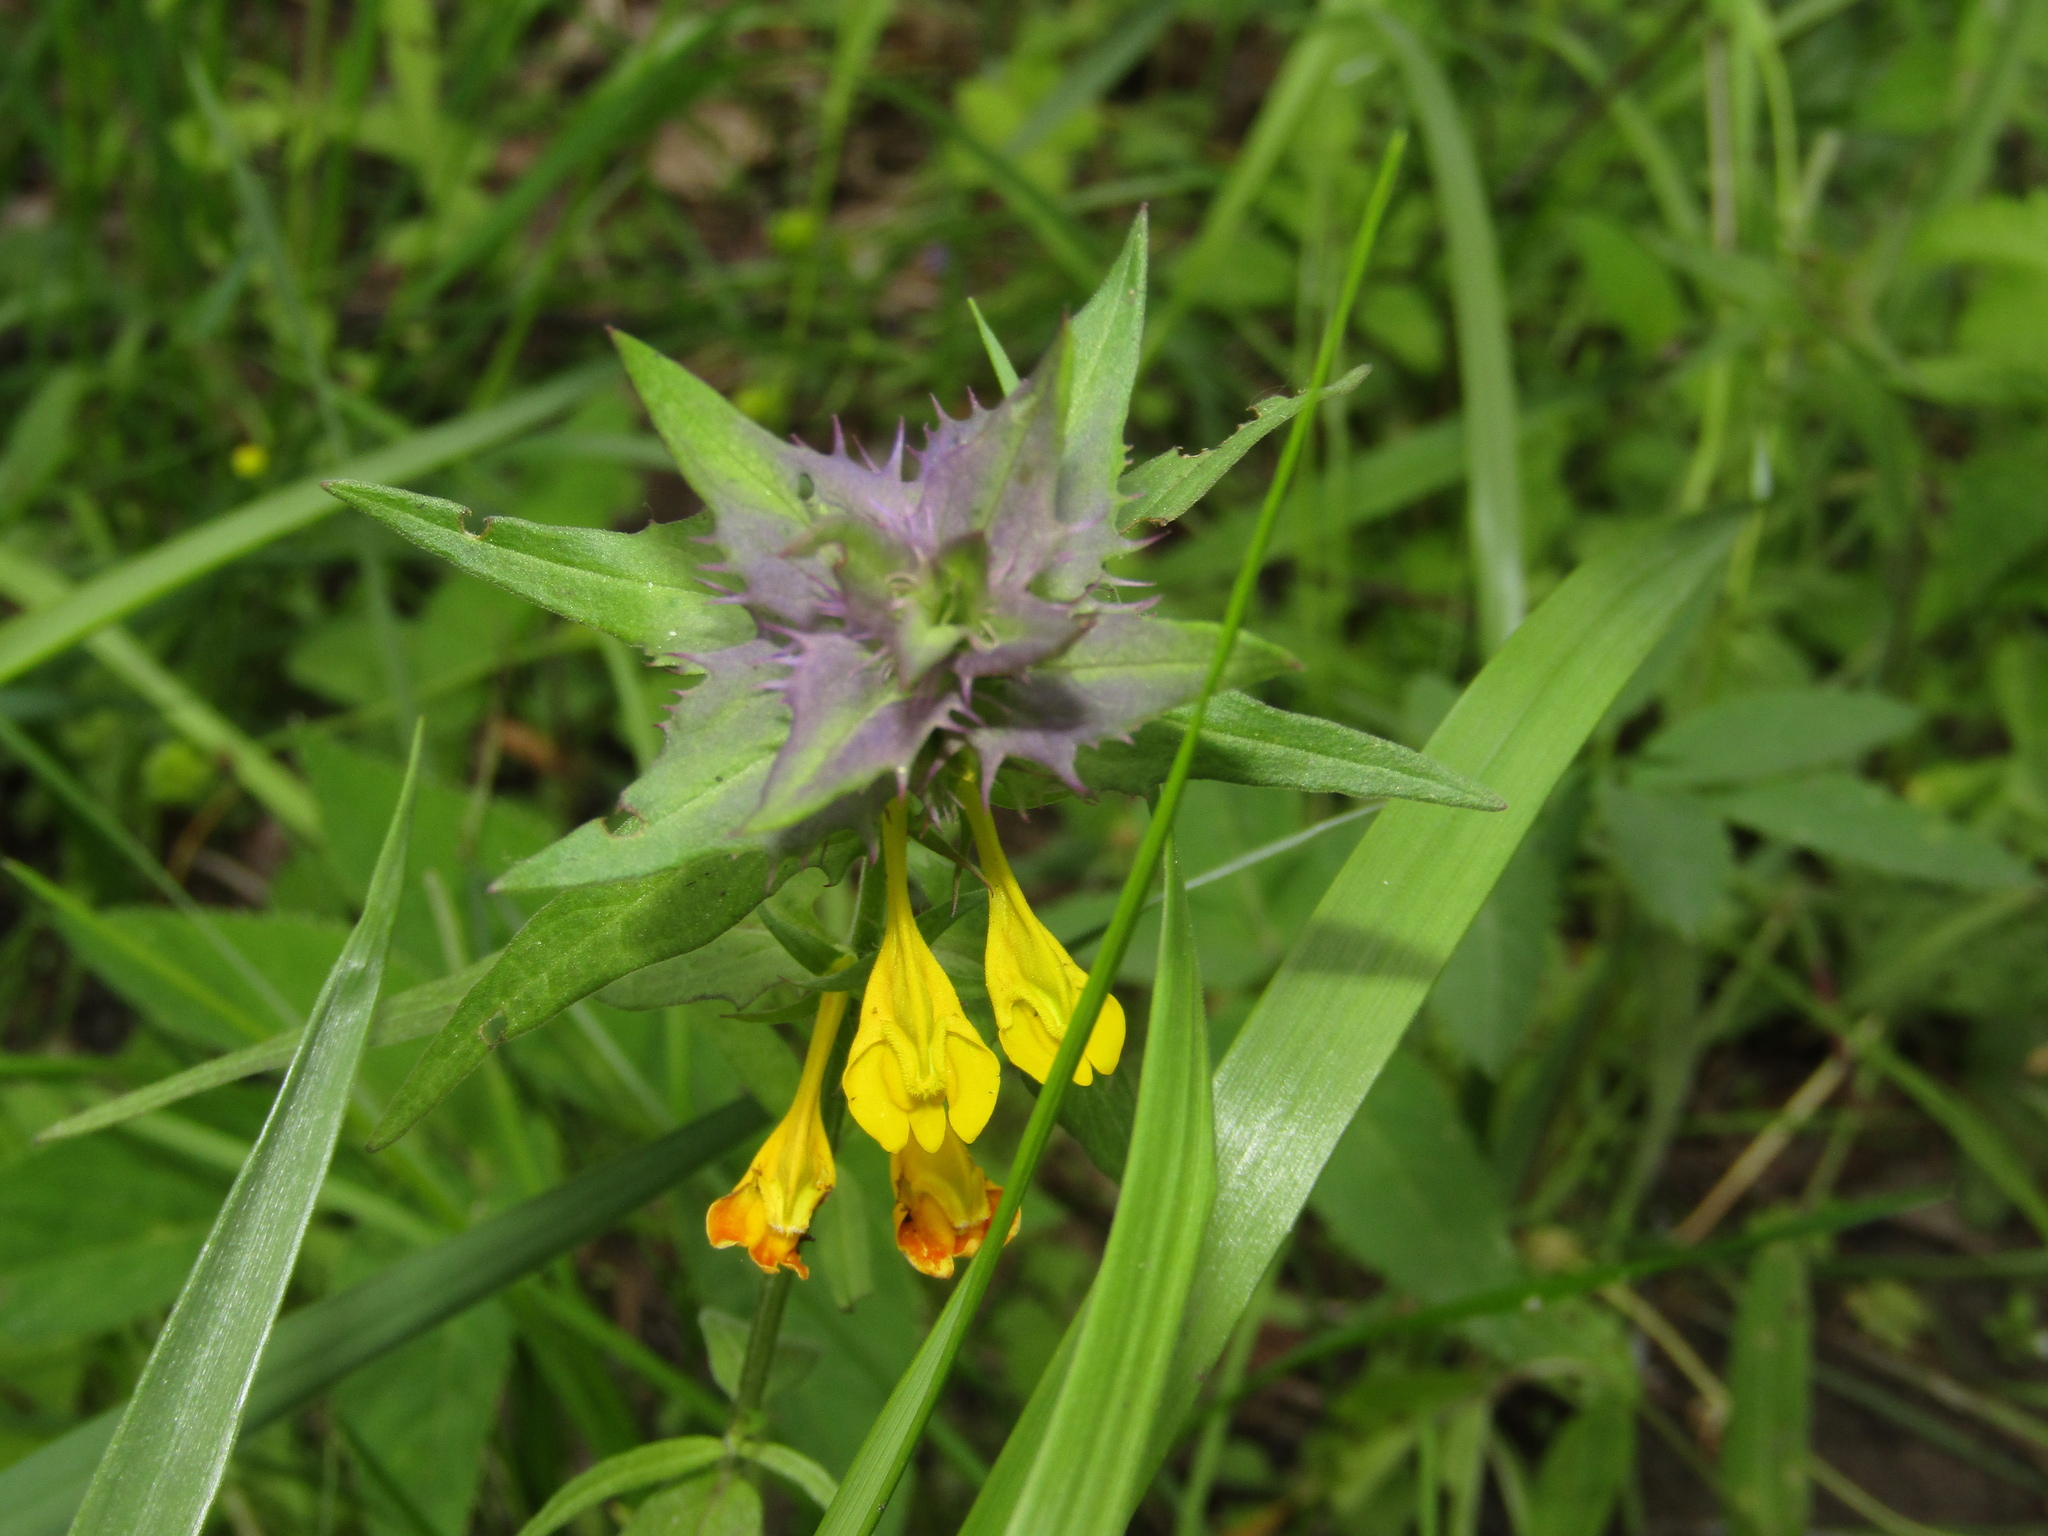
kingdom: Plantae
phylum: Tracheophyta
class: Magnoliopsida
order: Lamiales
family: Orobanchaceae
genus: Melampyrum
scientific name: Melampyrum nemorosum
